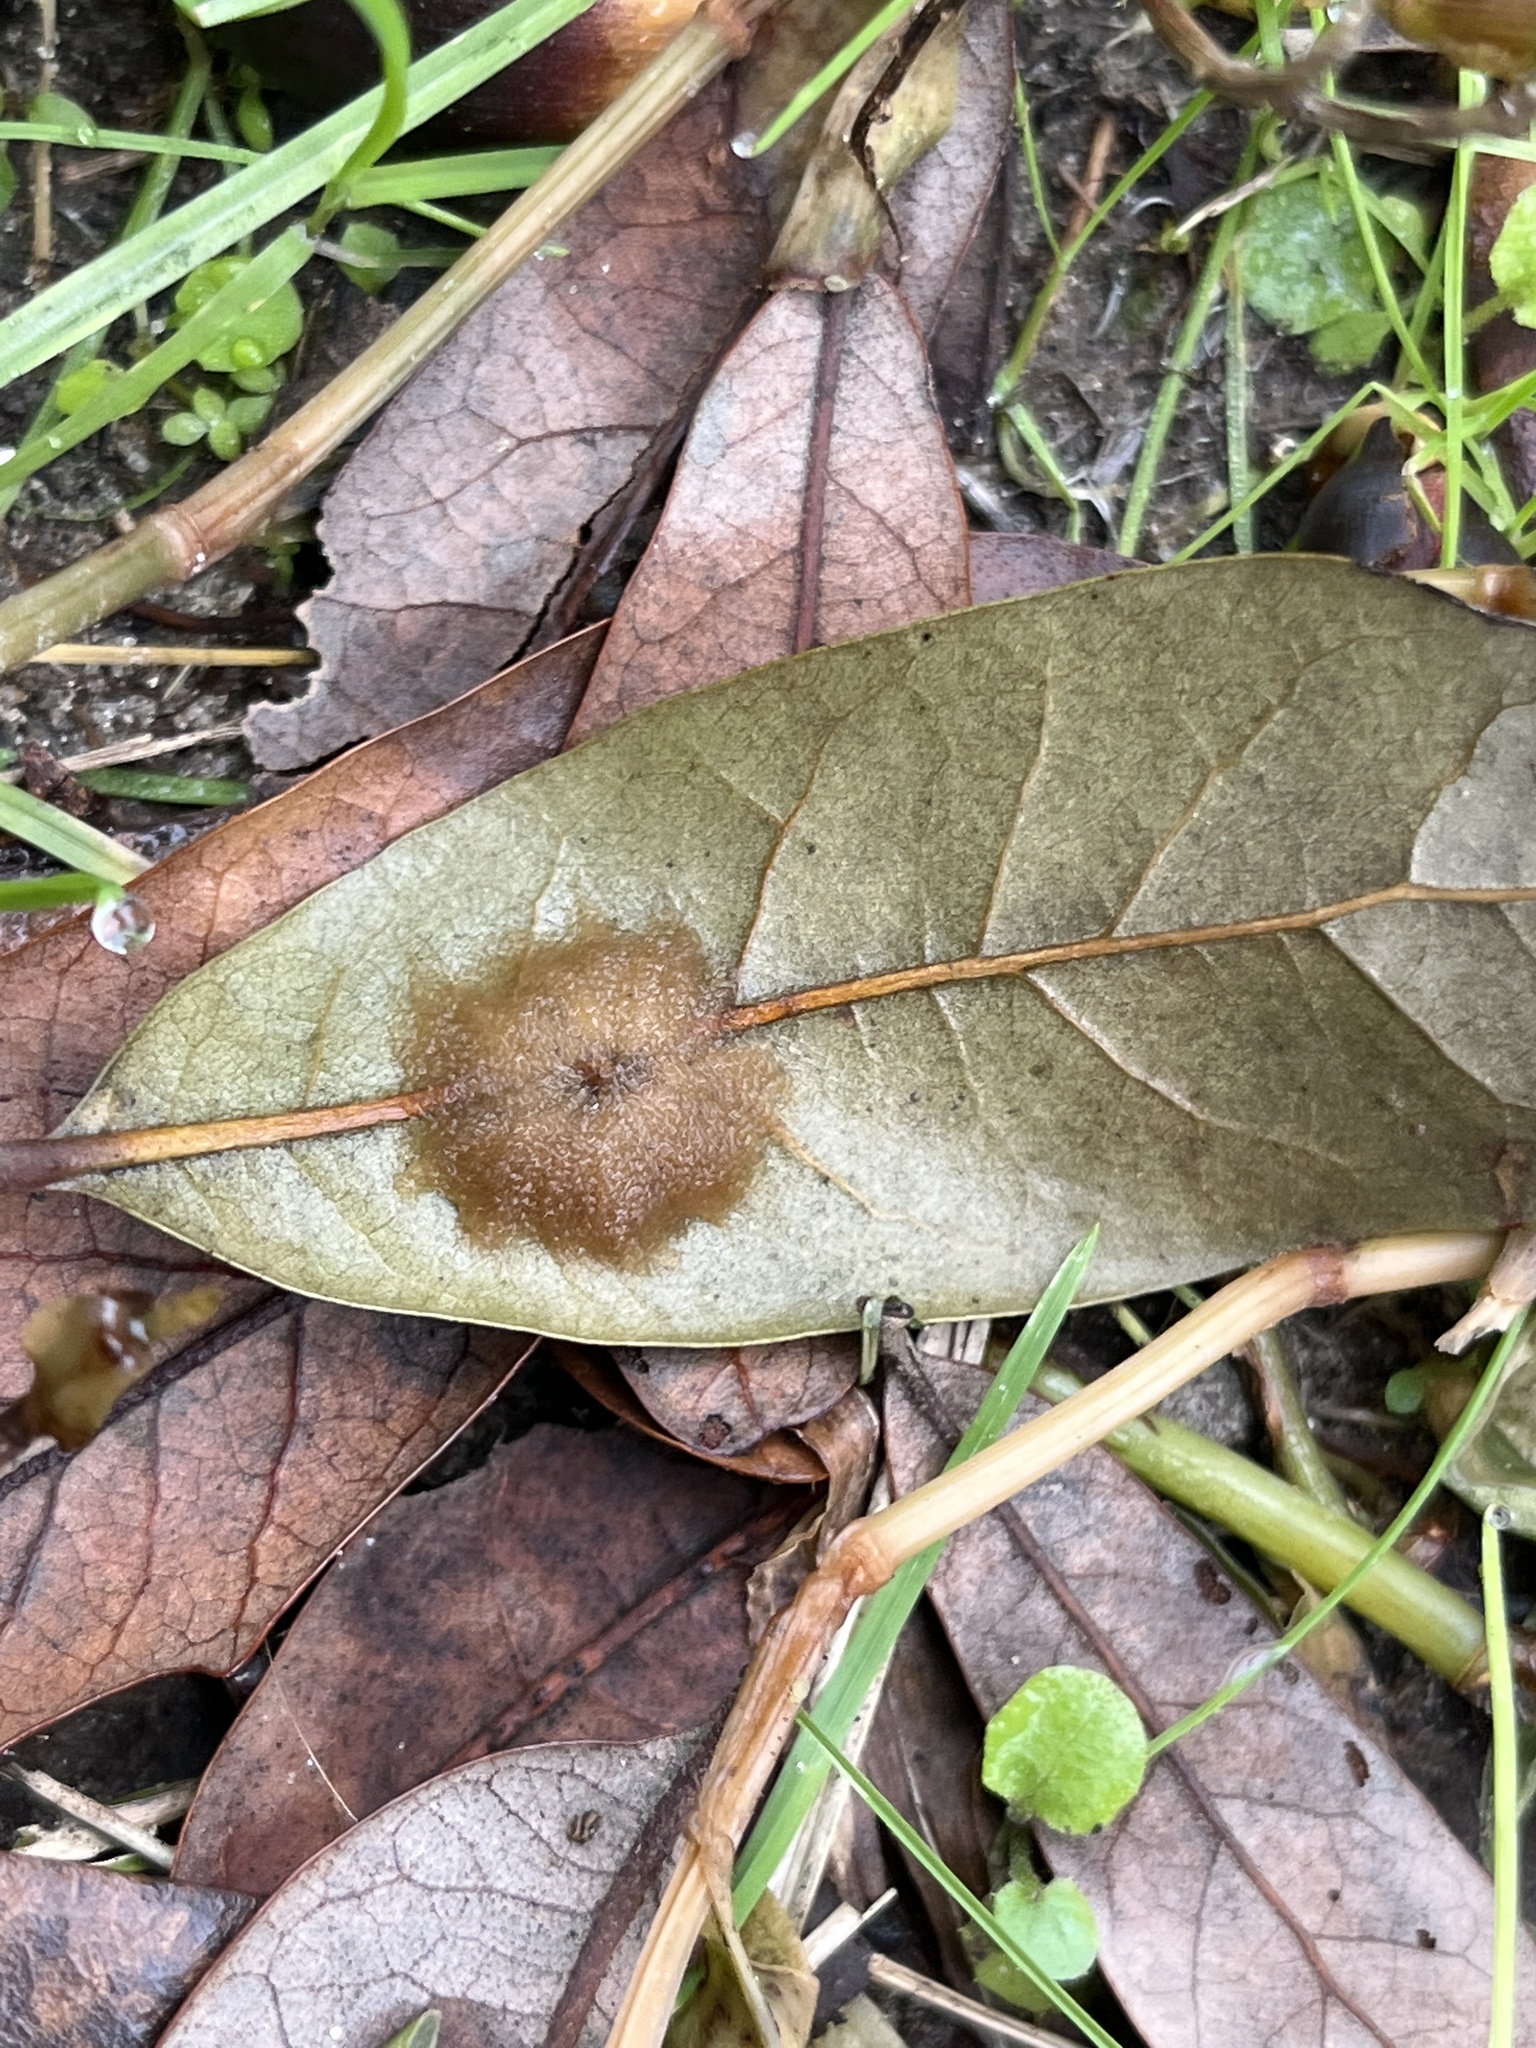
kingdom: Animalia
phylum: Arthropoda
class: Insecta
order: Hymenoptera
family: Cynipidae
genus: Andricus
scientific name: Andricus Druon quercuslanigerum
